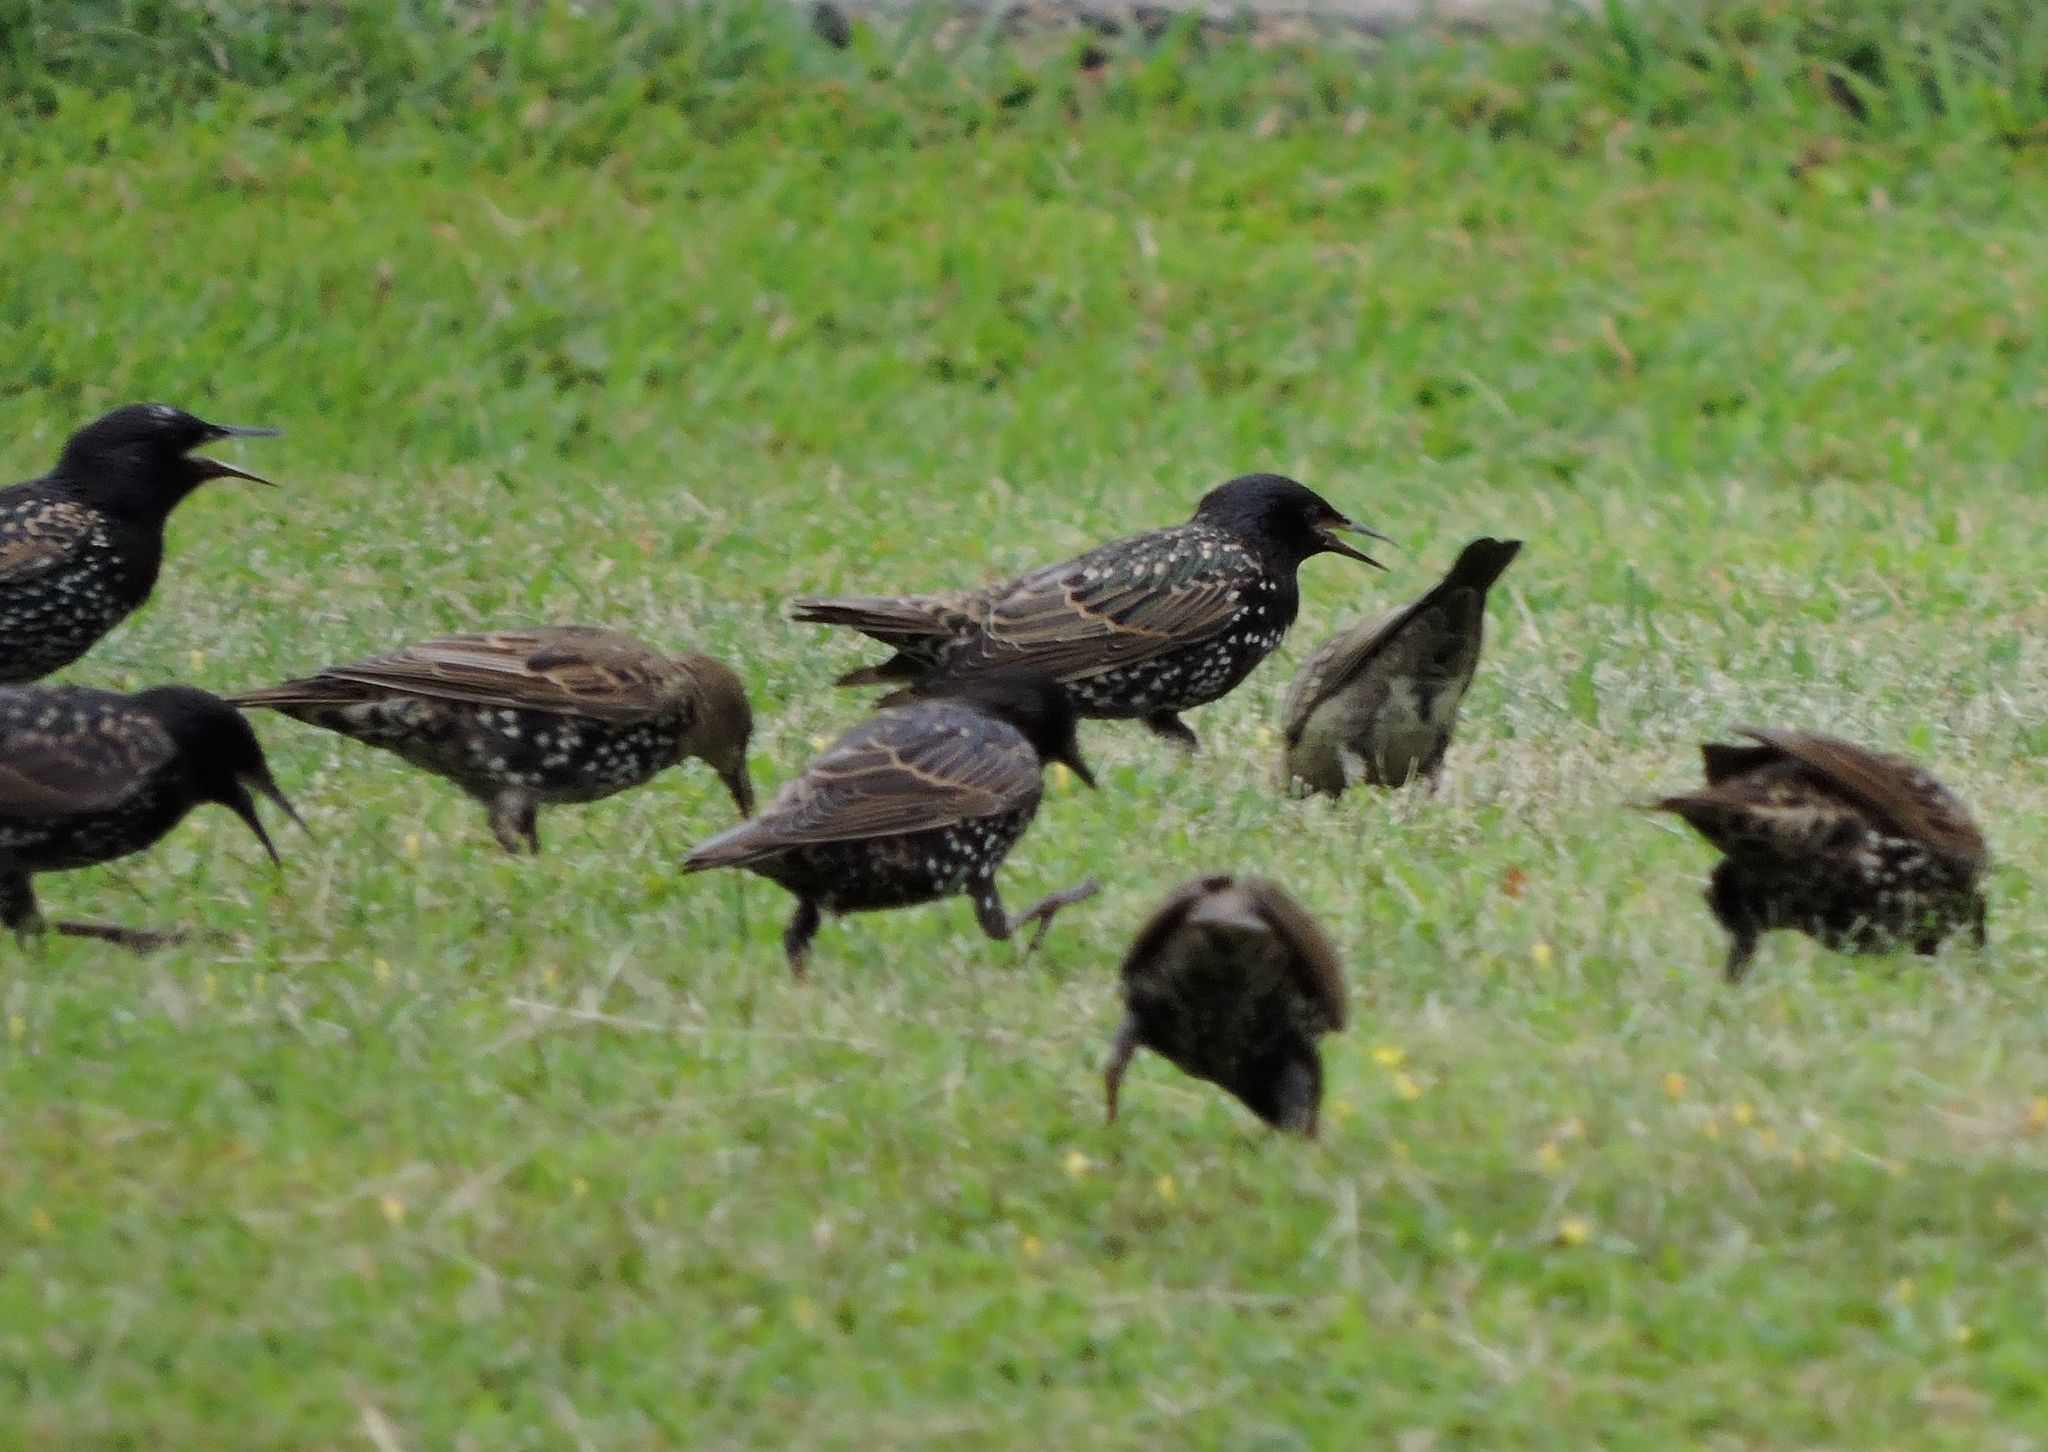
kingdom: Animalia
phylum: Chordata
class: Aves
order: Passeriformes
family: Sturnidae
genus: Sturnus
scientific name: Sturnus vulgaris
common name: Common starling
